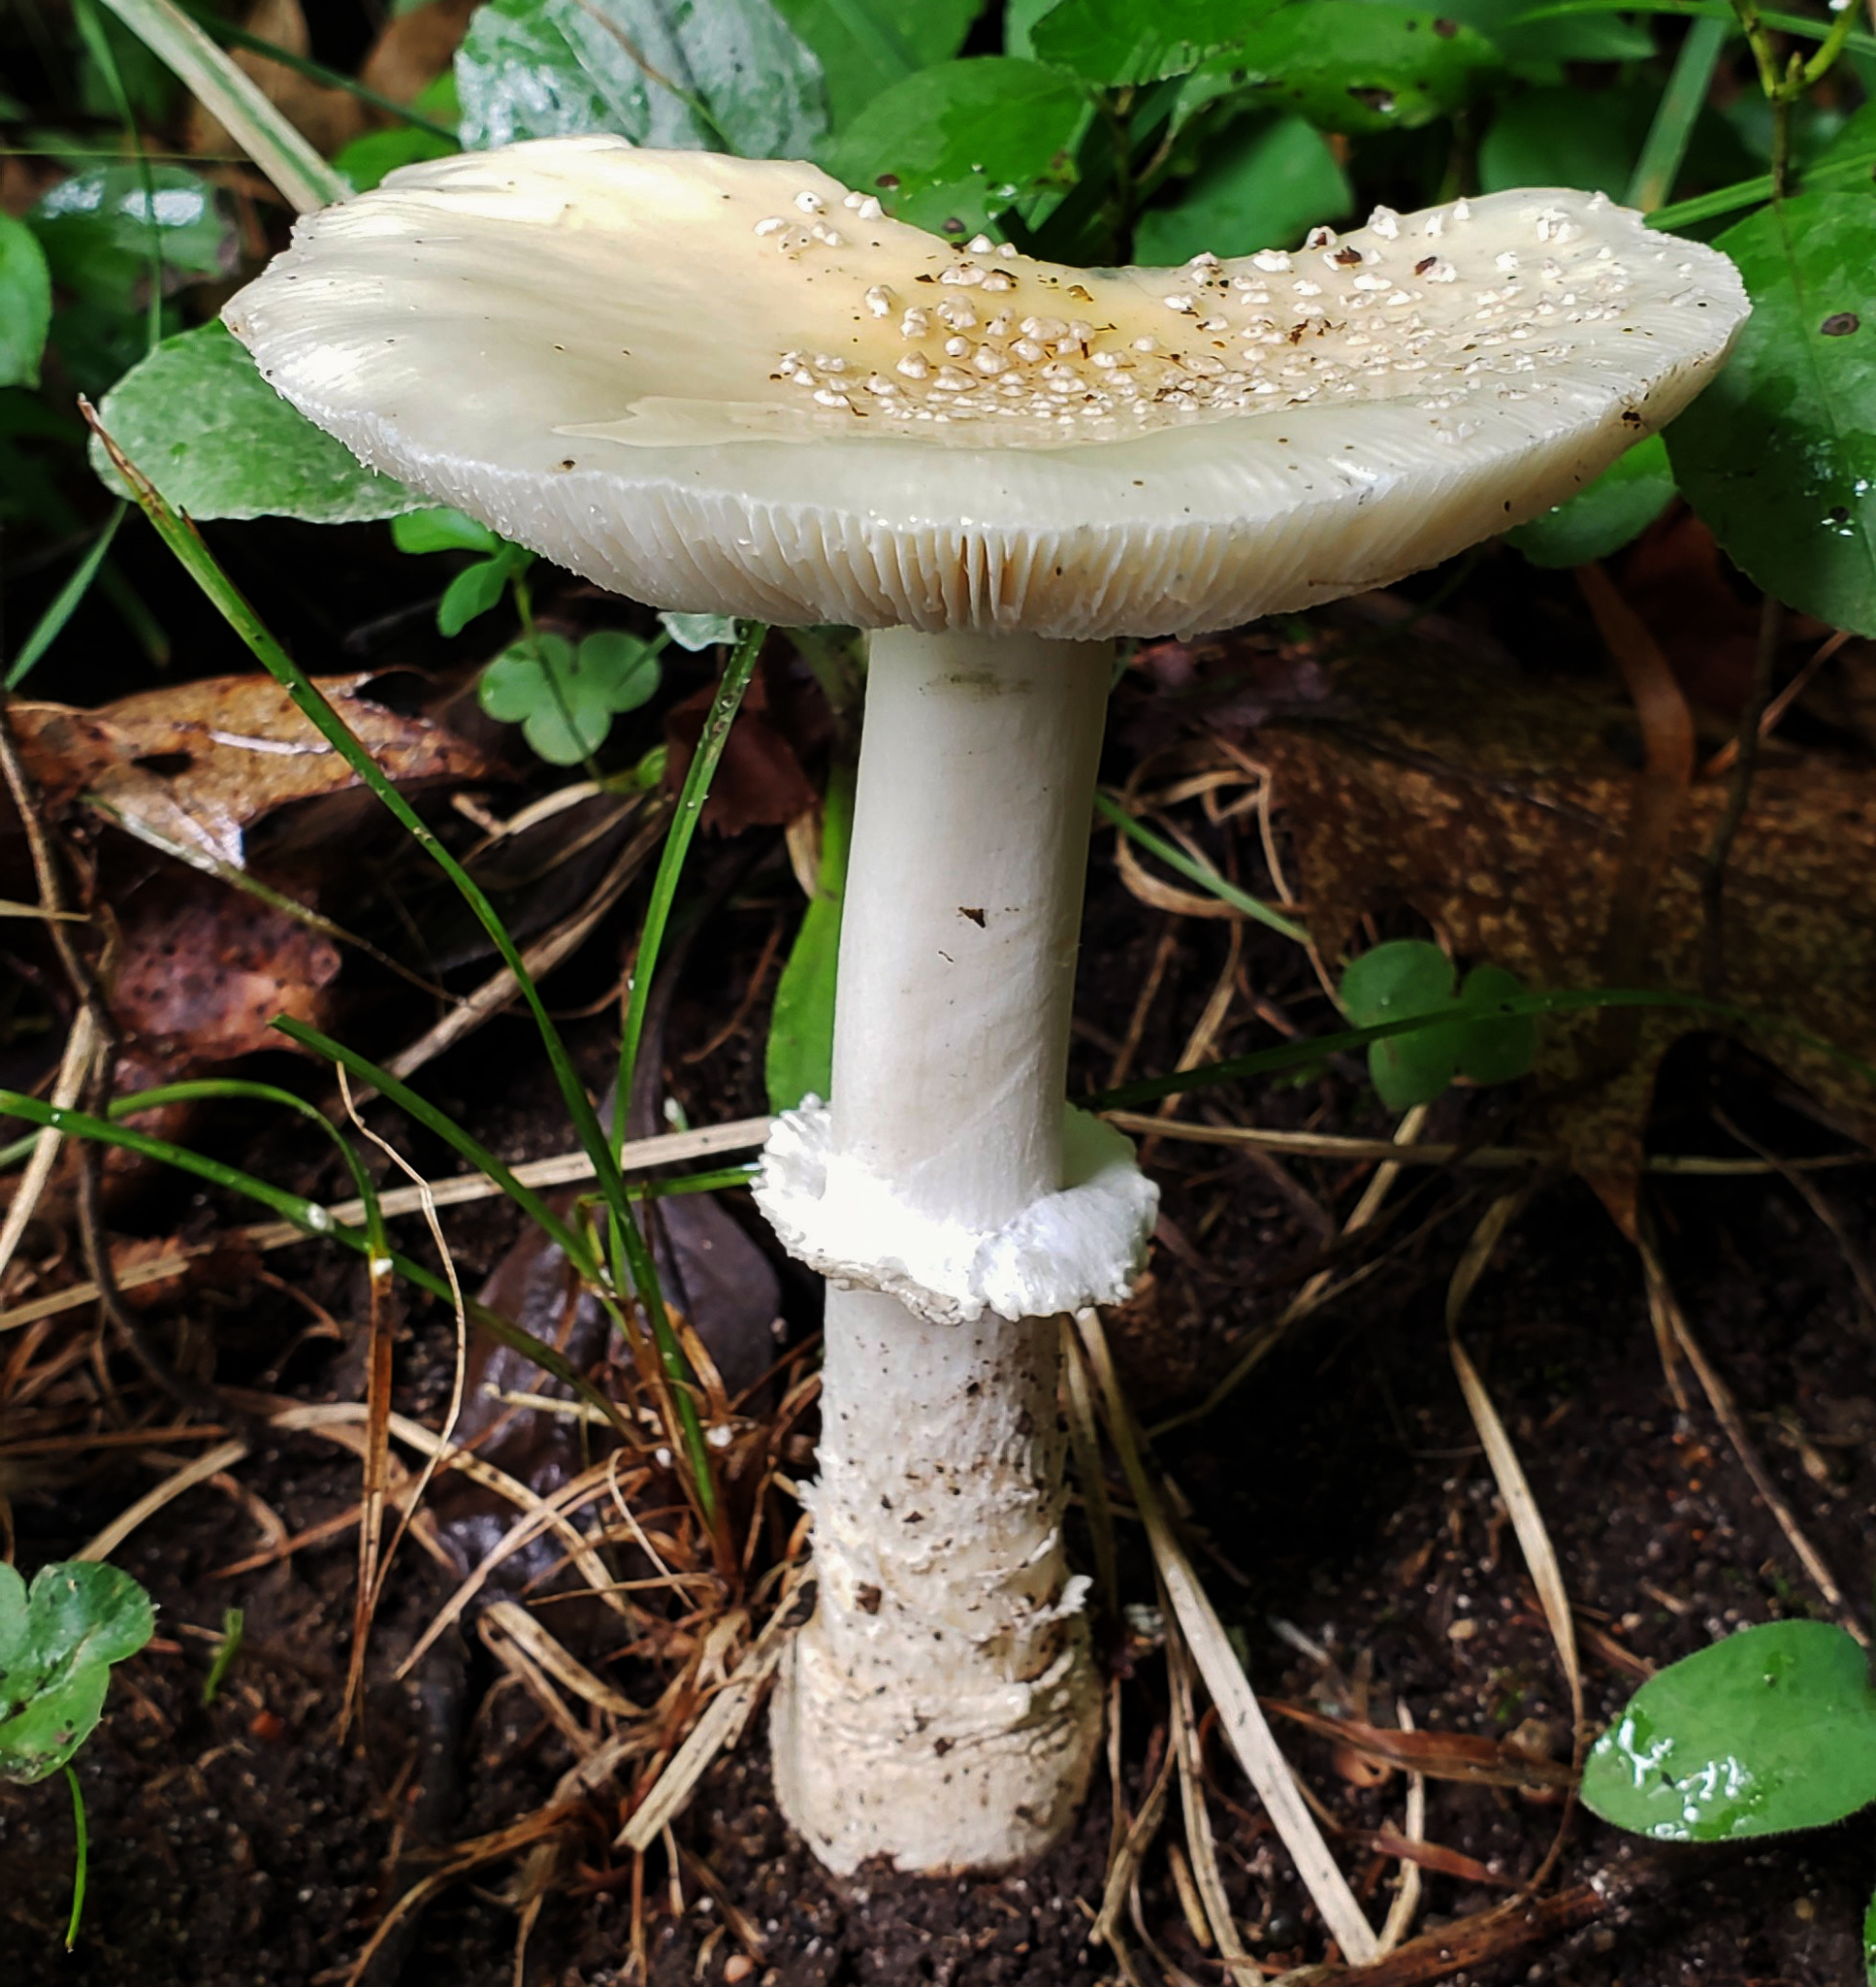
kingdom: Fungi
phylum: Basidiomycota
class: Agaricomycetes
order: Agaricales
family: Amanitaceae
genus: Amanita
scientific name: Amanita multisquamosa
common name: Small funnel-veil amanita
